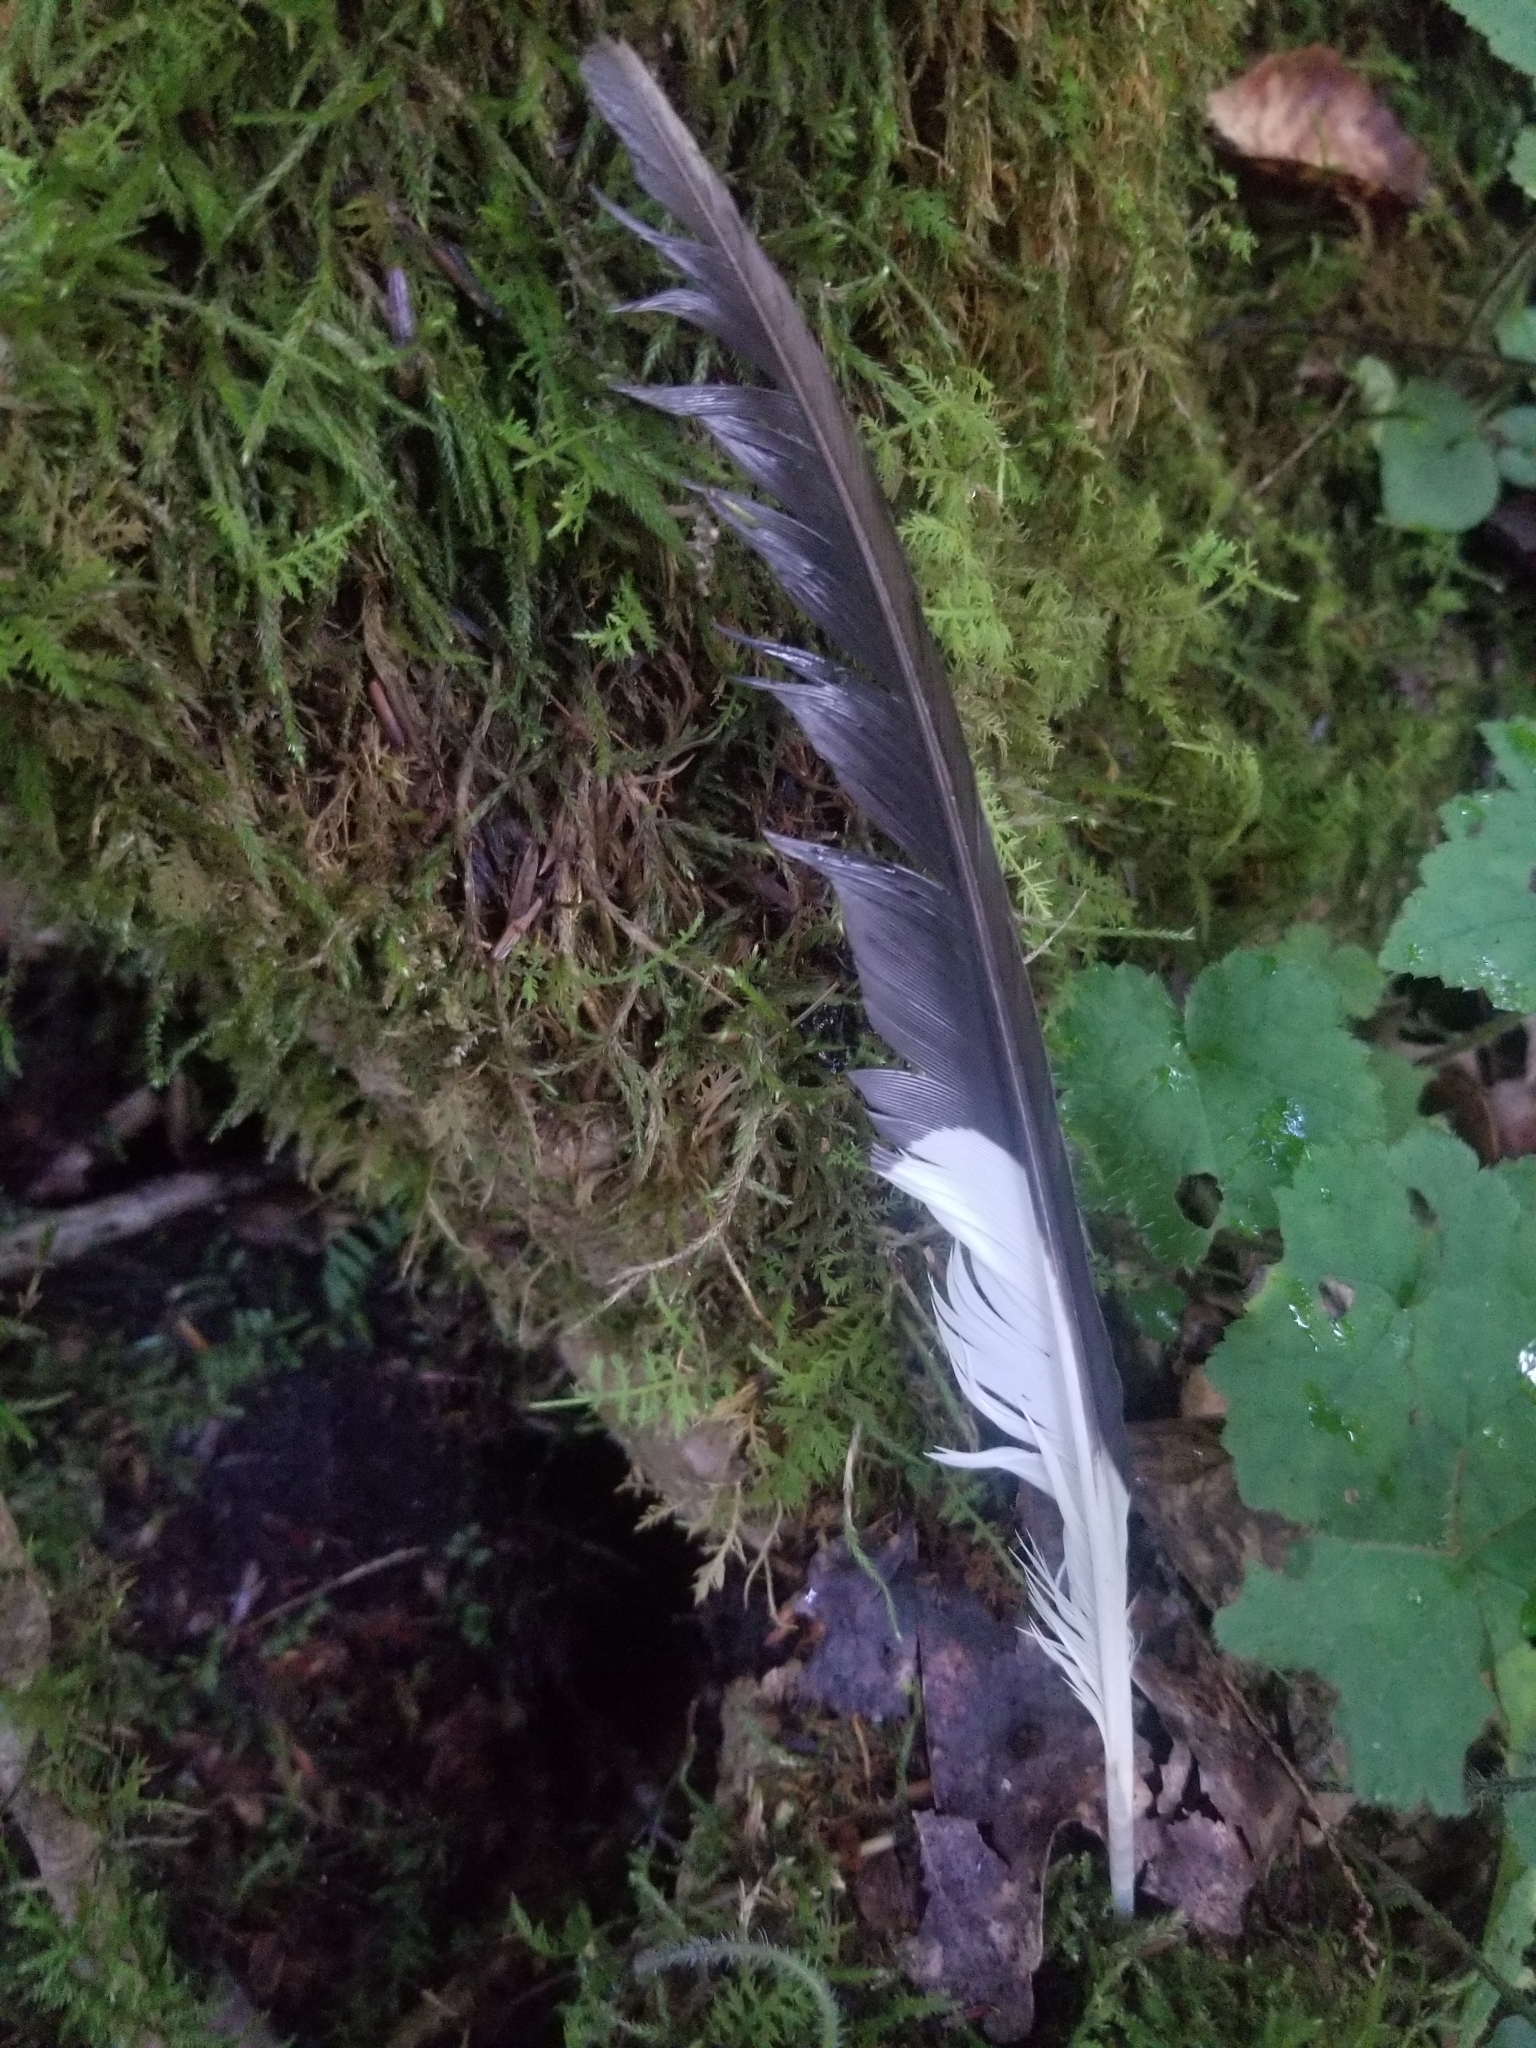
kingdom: Animalia
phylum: Chordata
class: Aves
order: Piciformes
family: Picidae
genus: Dryocopus
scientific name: Dryocopus pileatus
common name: Pileated woodpecker
